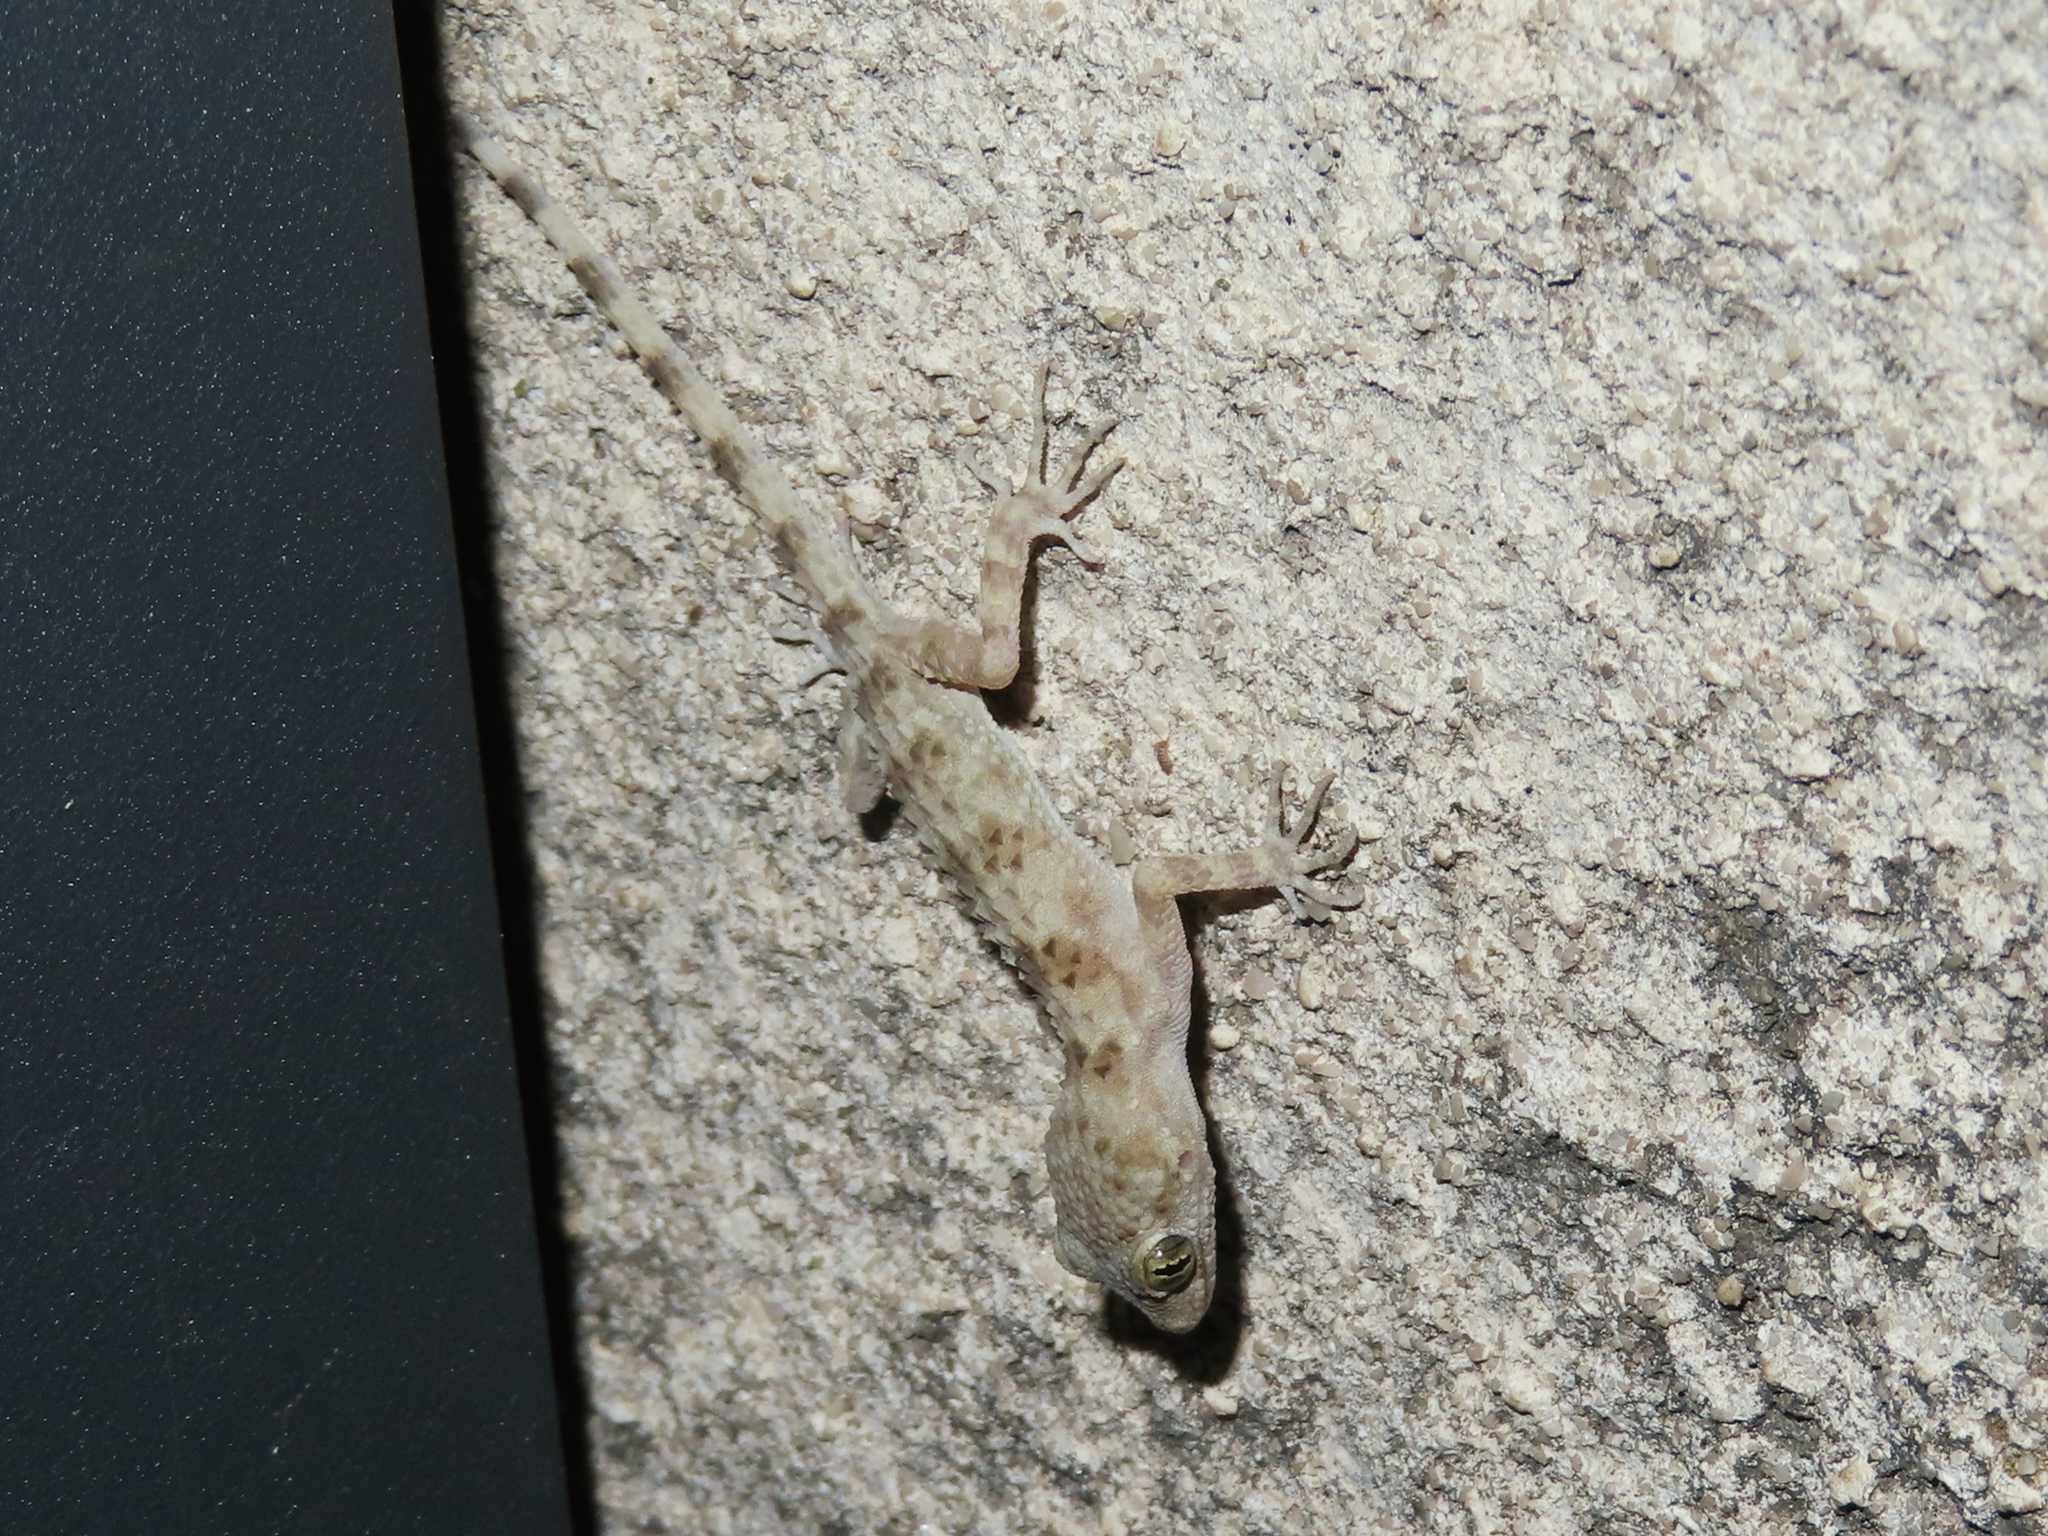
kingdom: Animalia
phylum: Chordata
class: Squamata
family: Gekkonidae
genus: Tenuidactylus
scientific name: Tenuidactylus caspius
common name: Caspian bent-toed gecko
